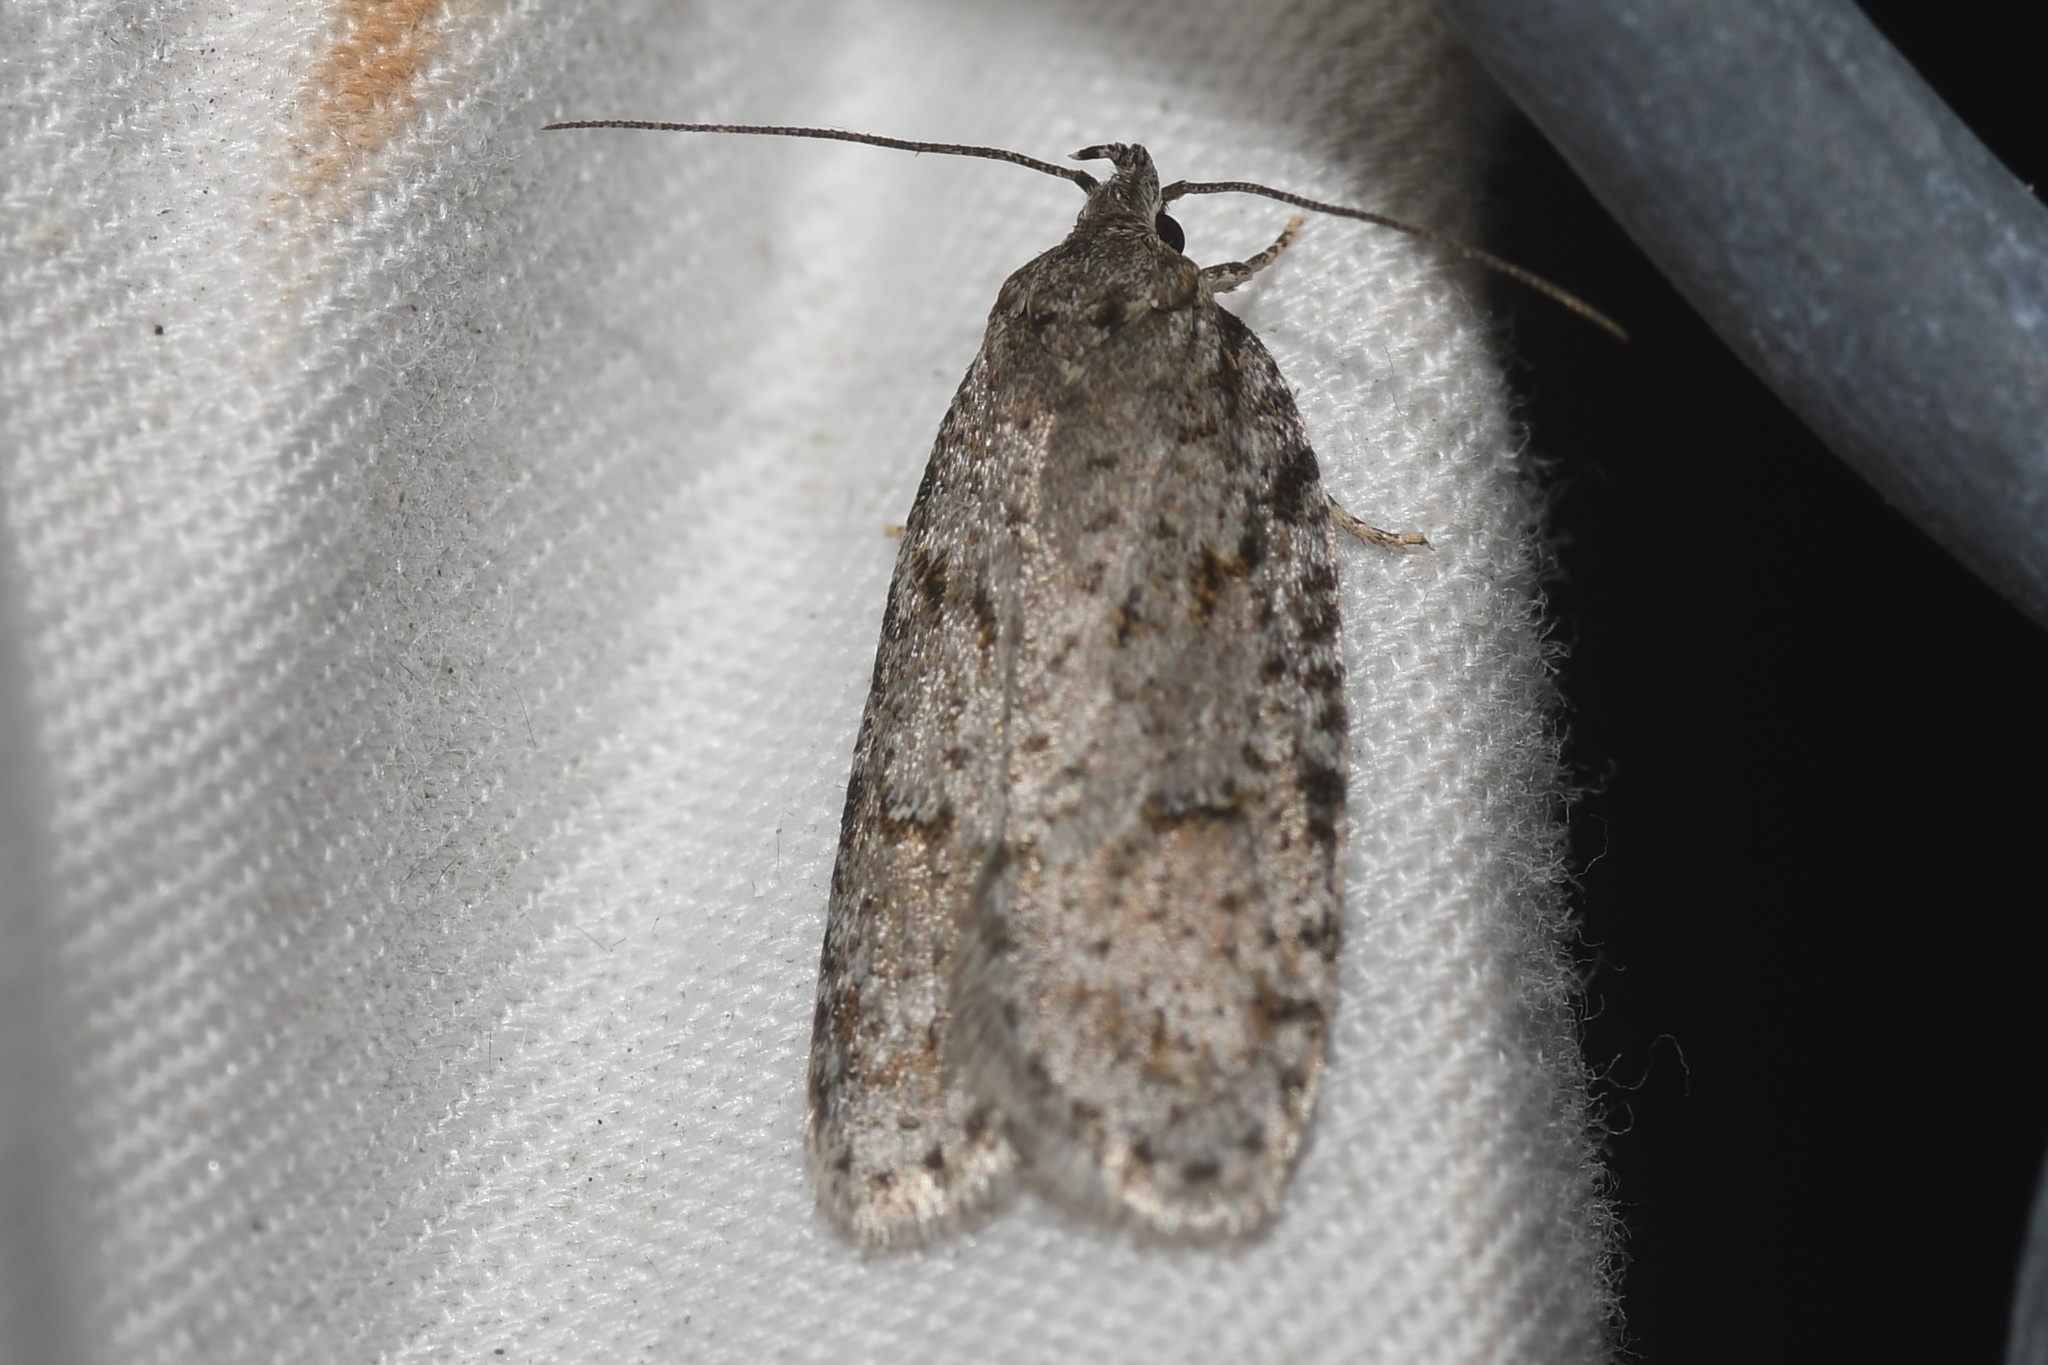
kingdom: Animalia
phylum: Arthropoda
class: Insecta
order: Lepidoptera
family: Depressariidae
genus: Bibarrambla
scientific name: Bibarrambla allenella
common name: Bog bibarrambla moth
